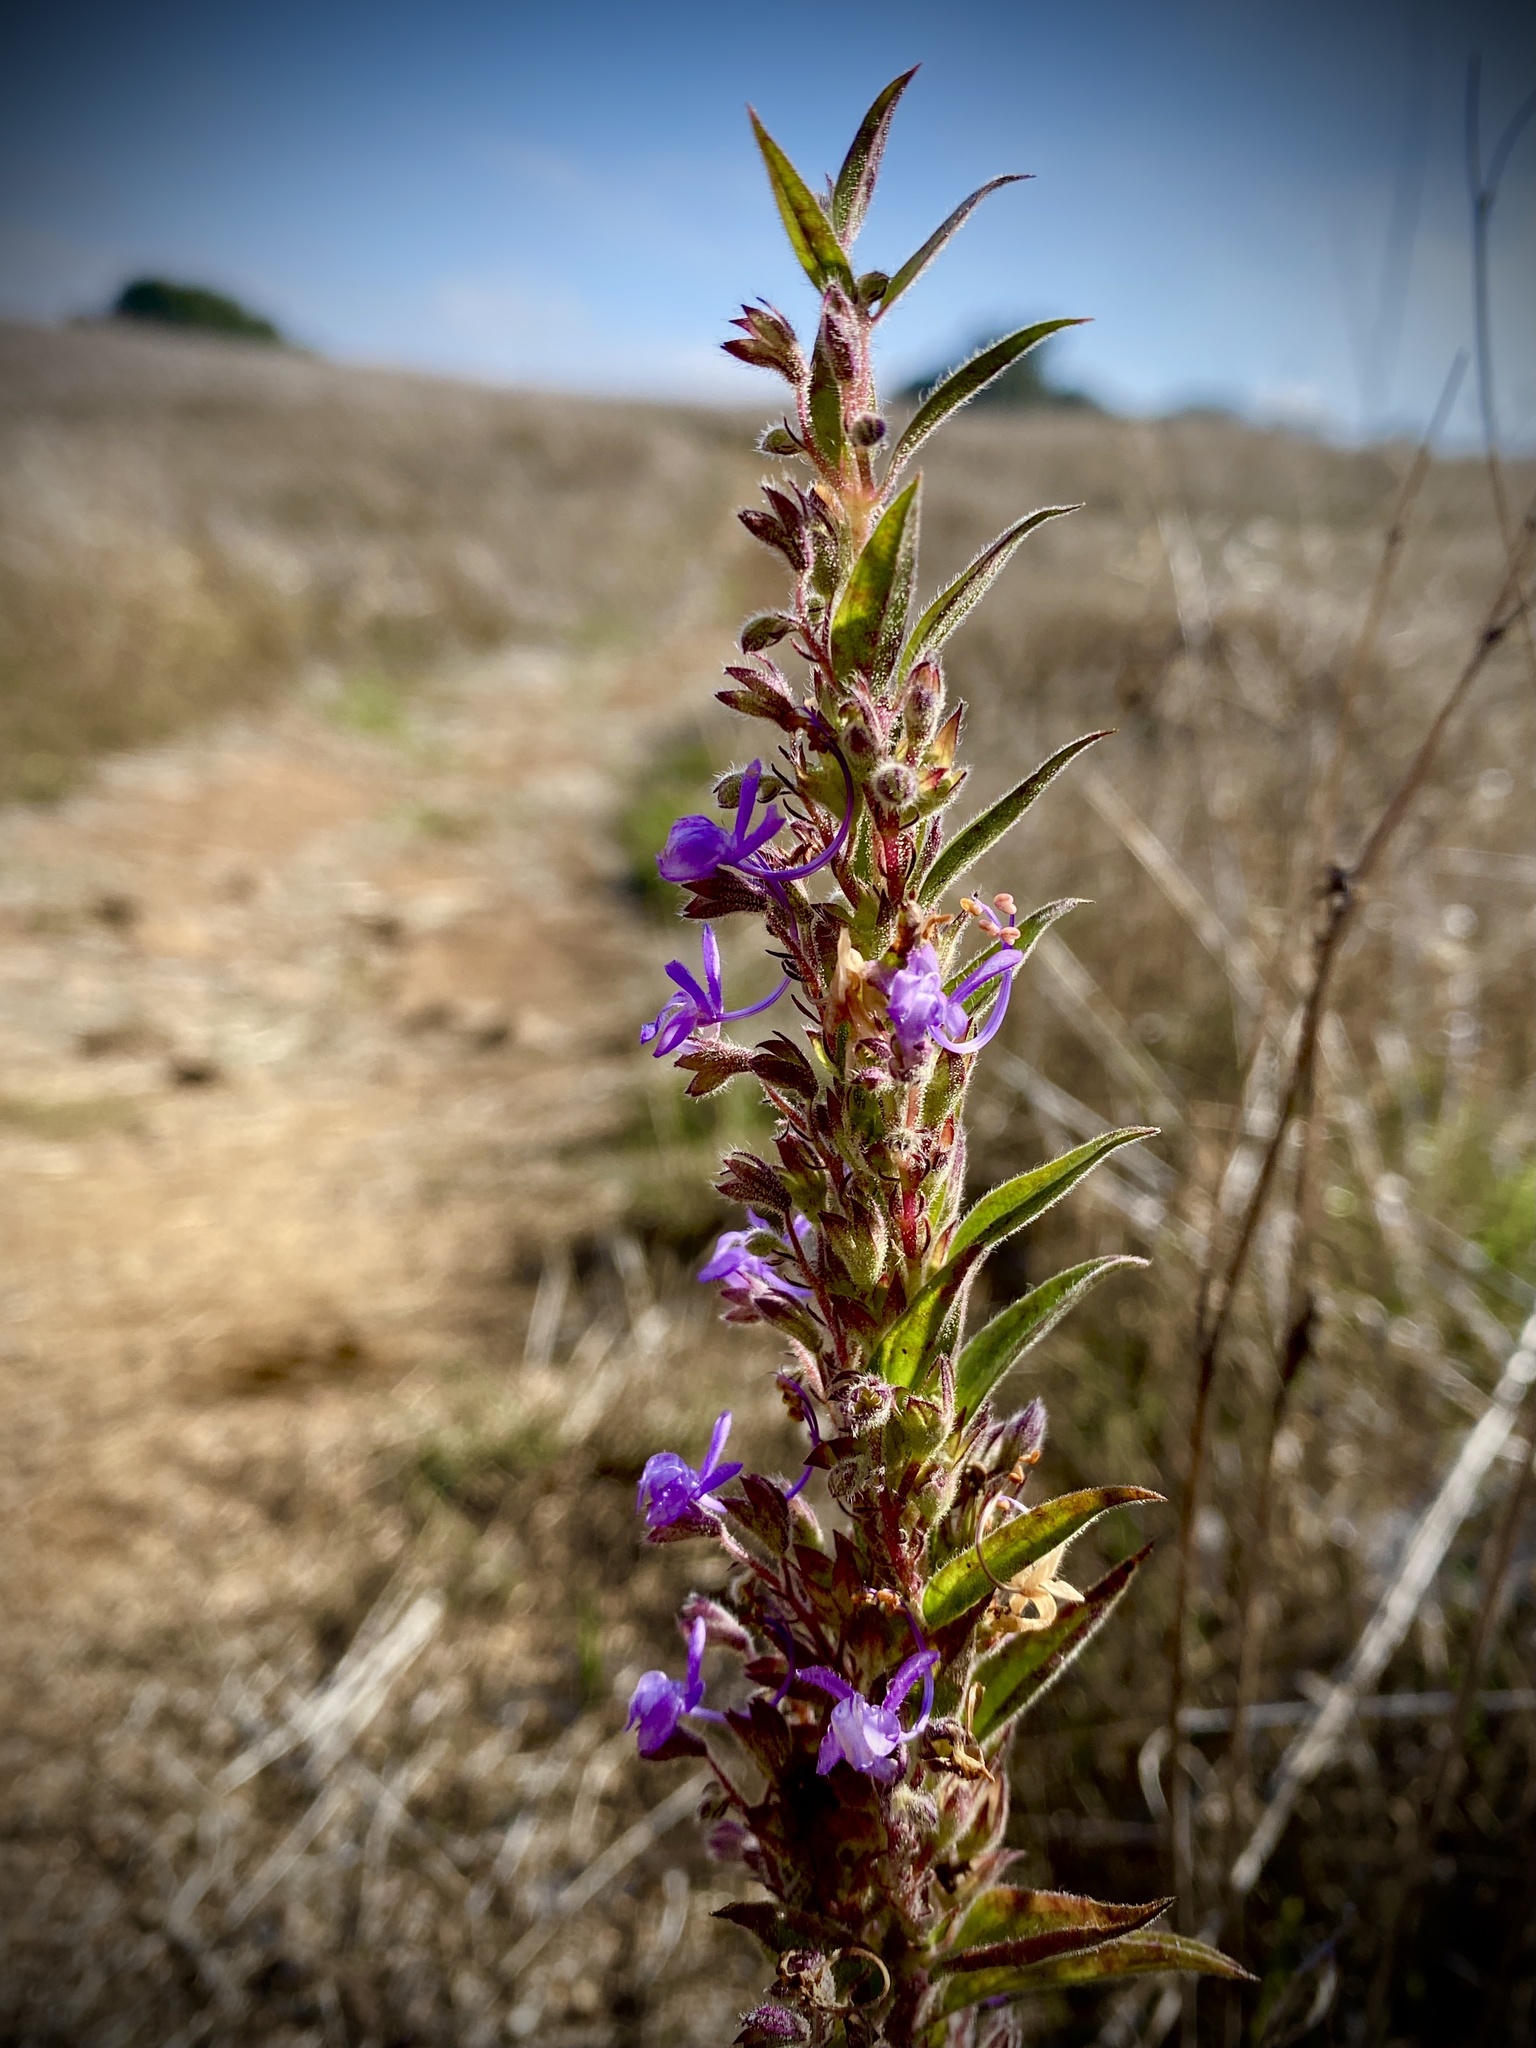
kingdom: Plantae
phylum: Tracheophyta
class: Magnoliopsida
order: Lamiales
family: Lamiaceae
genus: Trichostema
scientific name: Trichostema lanceolatum
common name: Vinegar-weed
